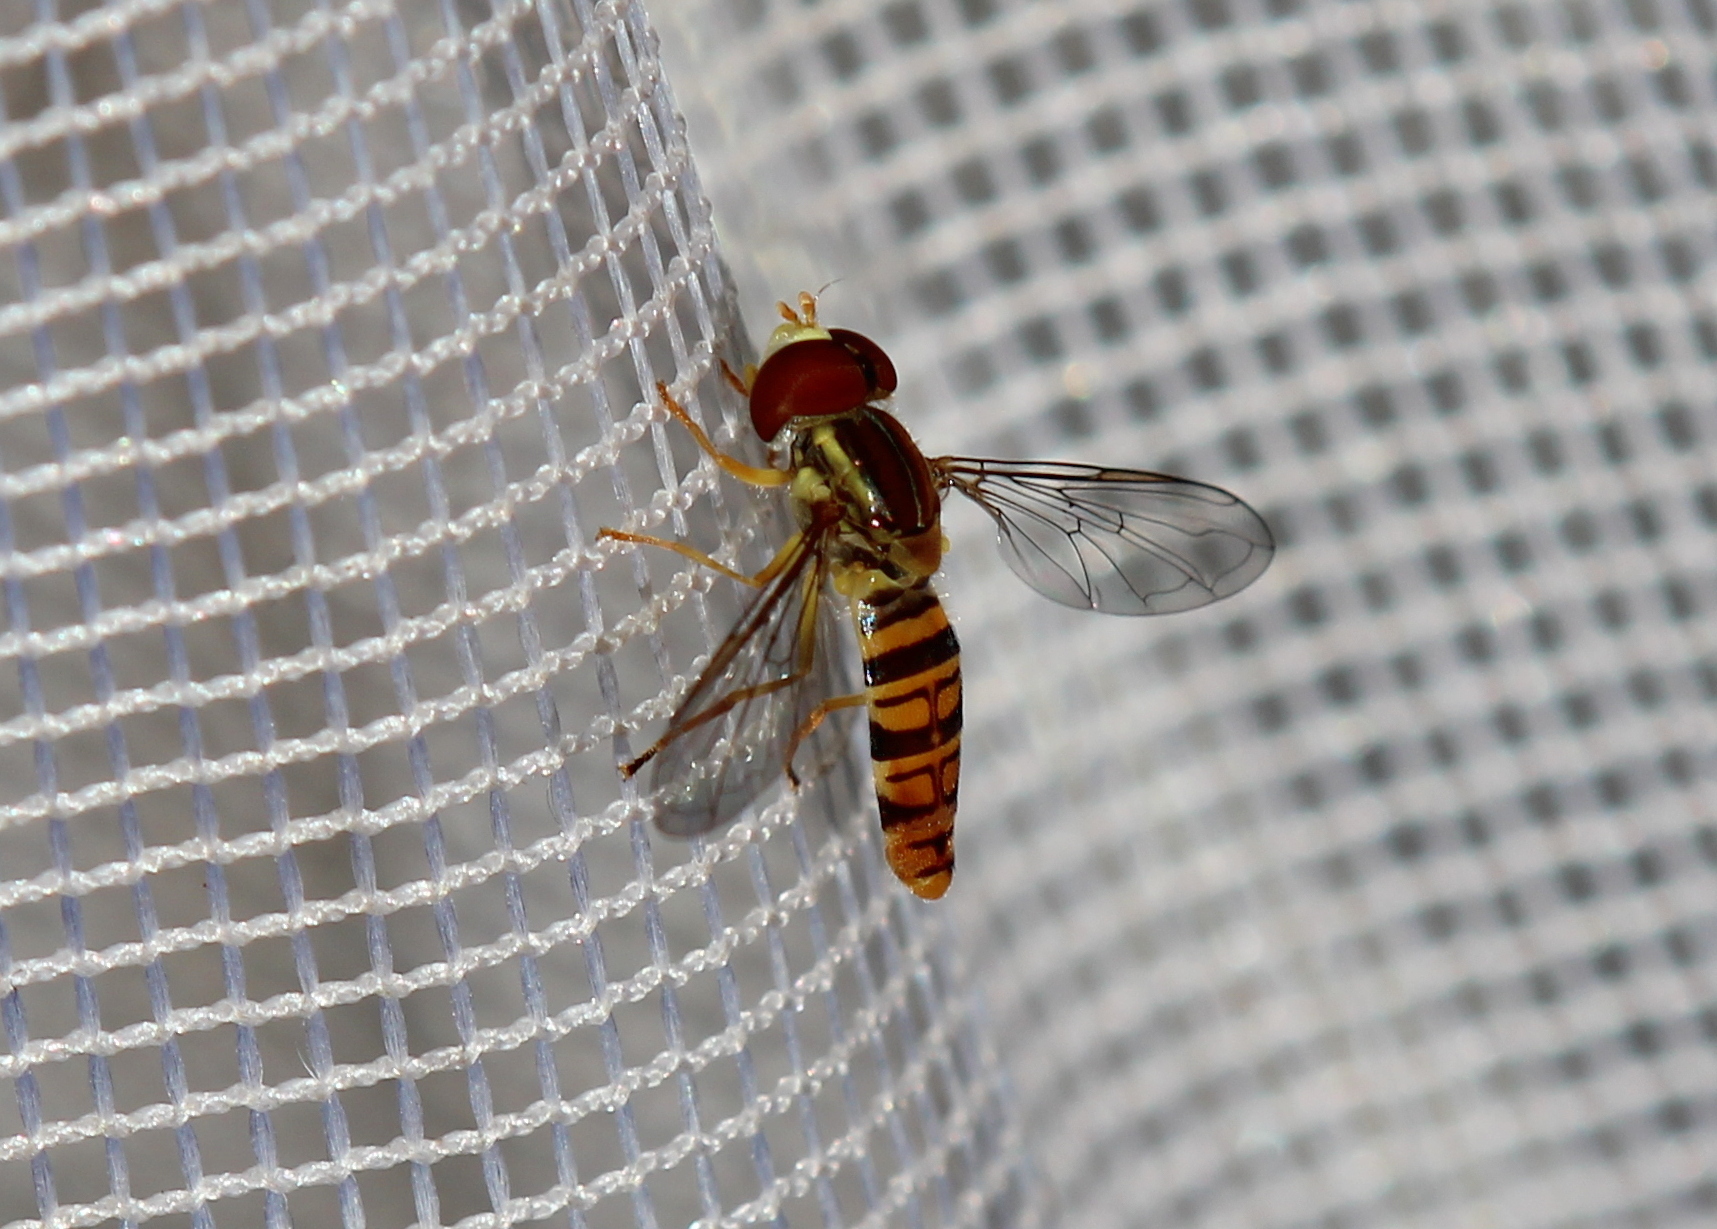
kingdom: Animalia
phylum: Arthropoda
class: Insecta
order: Diptera
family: Syrphidae
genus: Toxomerus
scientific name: Toxomerus politus
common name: Maize calligrapher
